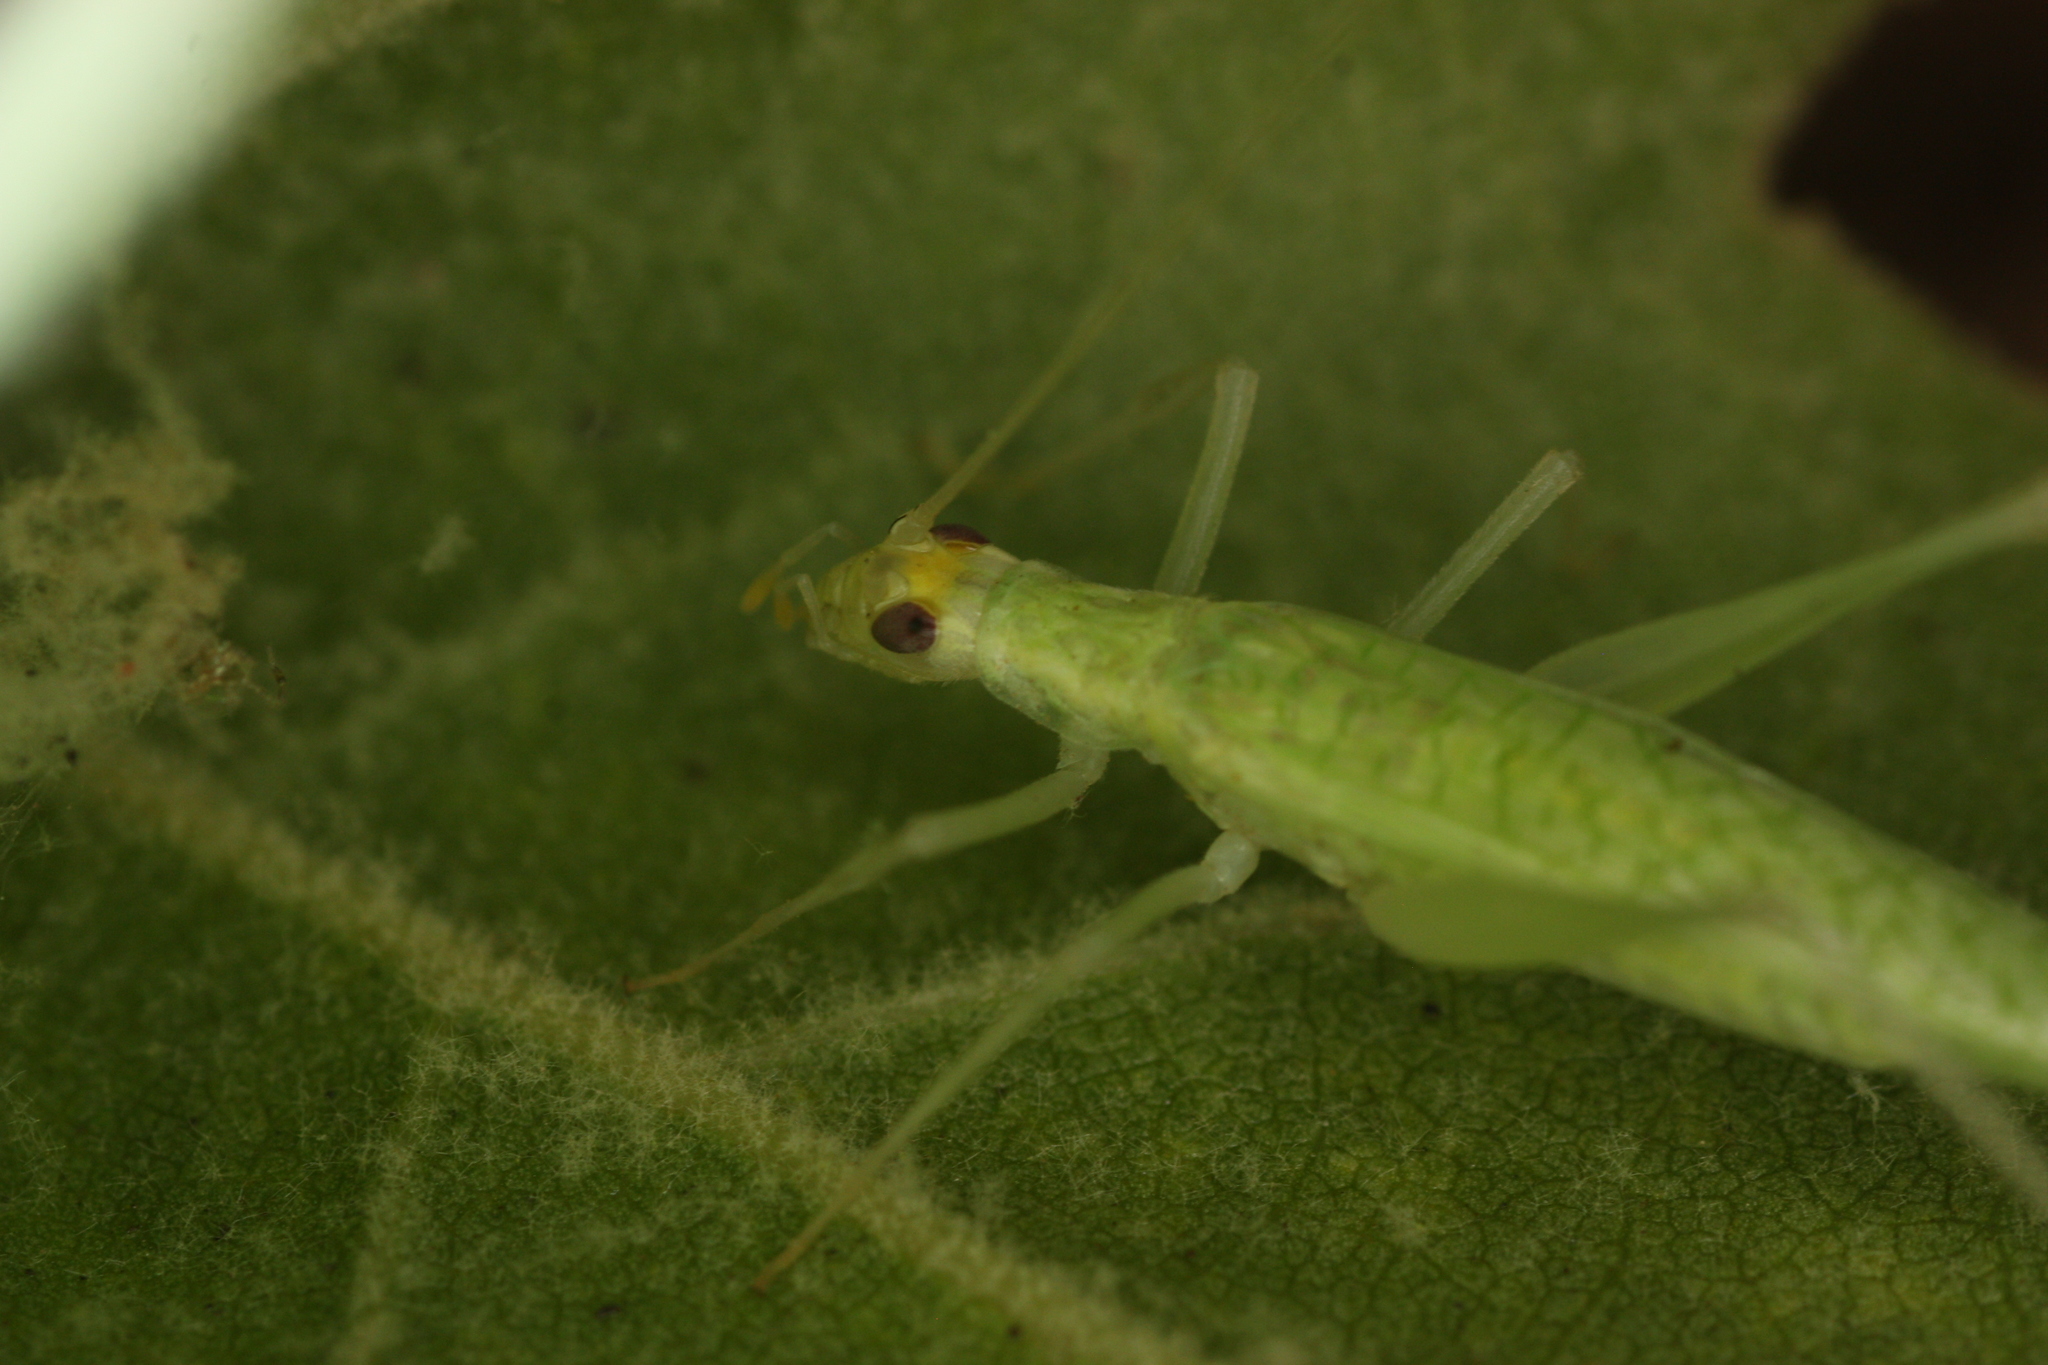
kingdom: Animalia
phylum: Arthropoda
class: Insecta
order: Orthoptera
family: Gryllidae
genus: Oecanthus
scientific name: Oecanthus exclamationis
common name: Davis's tree cricket
